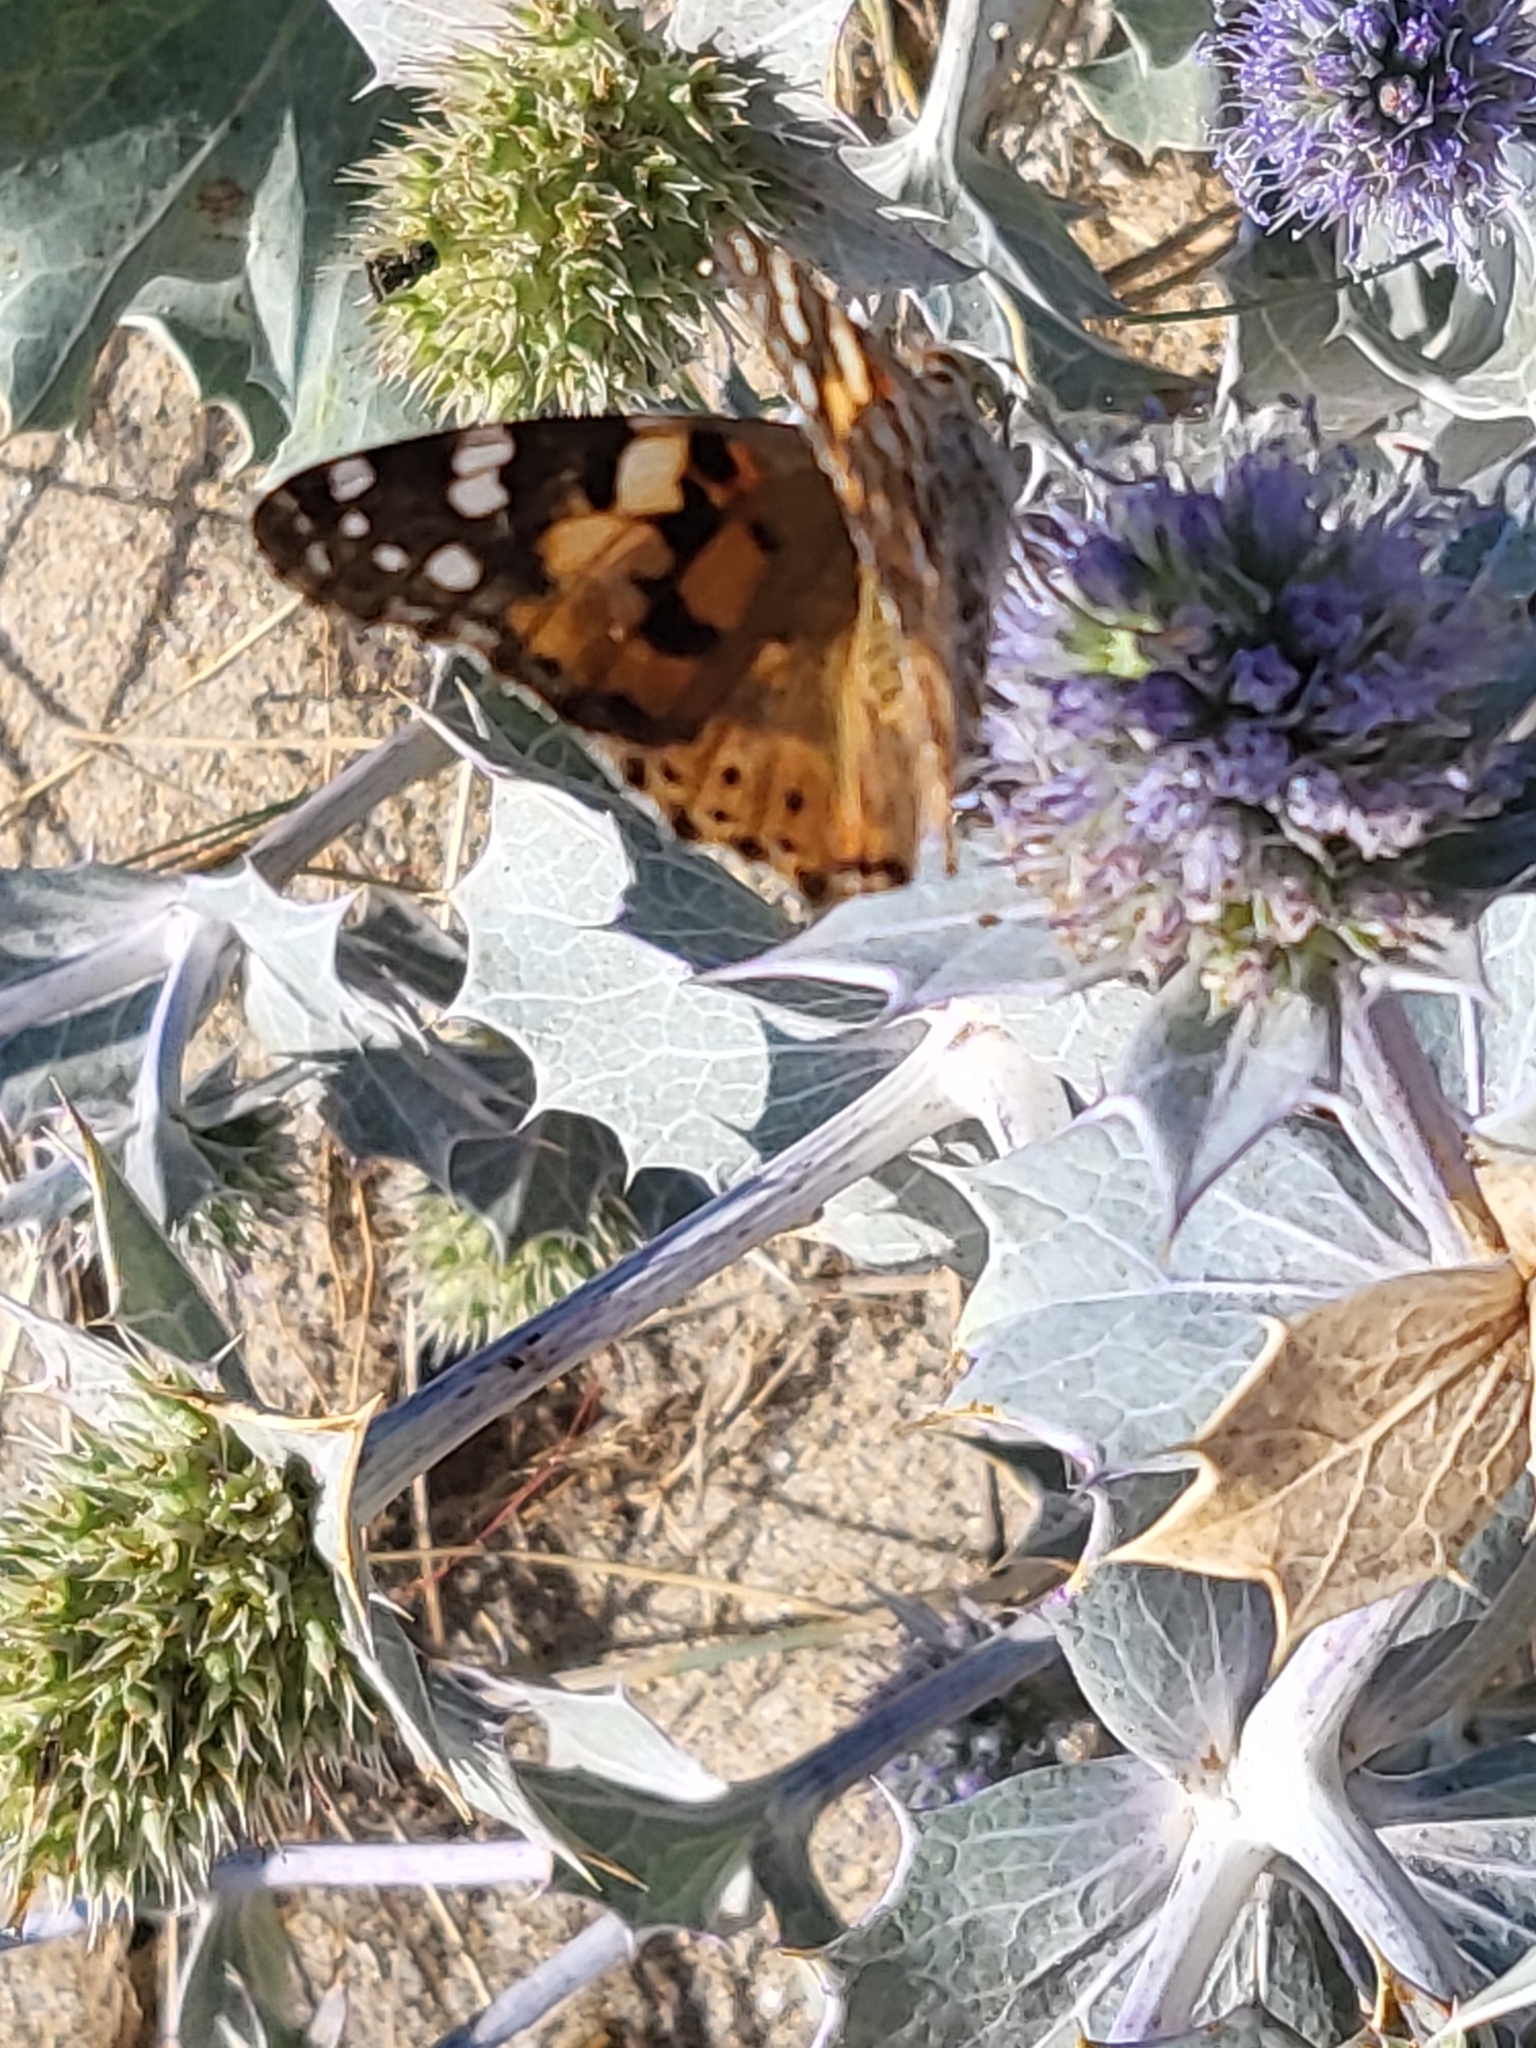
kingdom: Animalia
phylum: Arthropoda
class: Insecta
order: Lepidoptera
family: Nymphalidae
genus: Vanessa
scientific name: Vanessa cardui
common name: Painted lady
